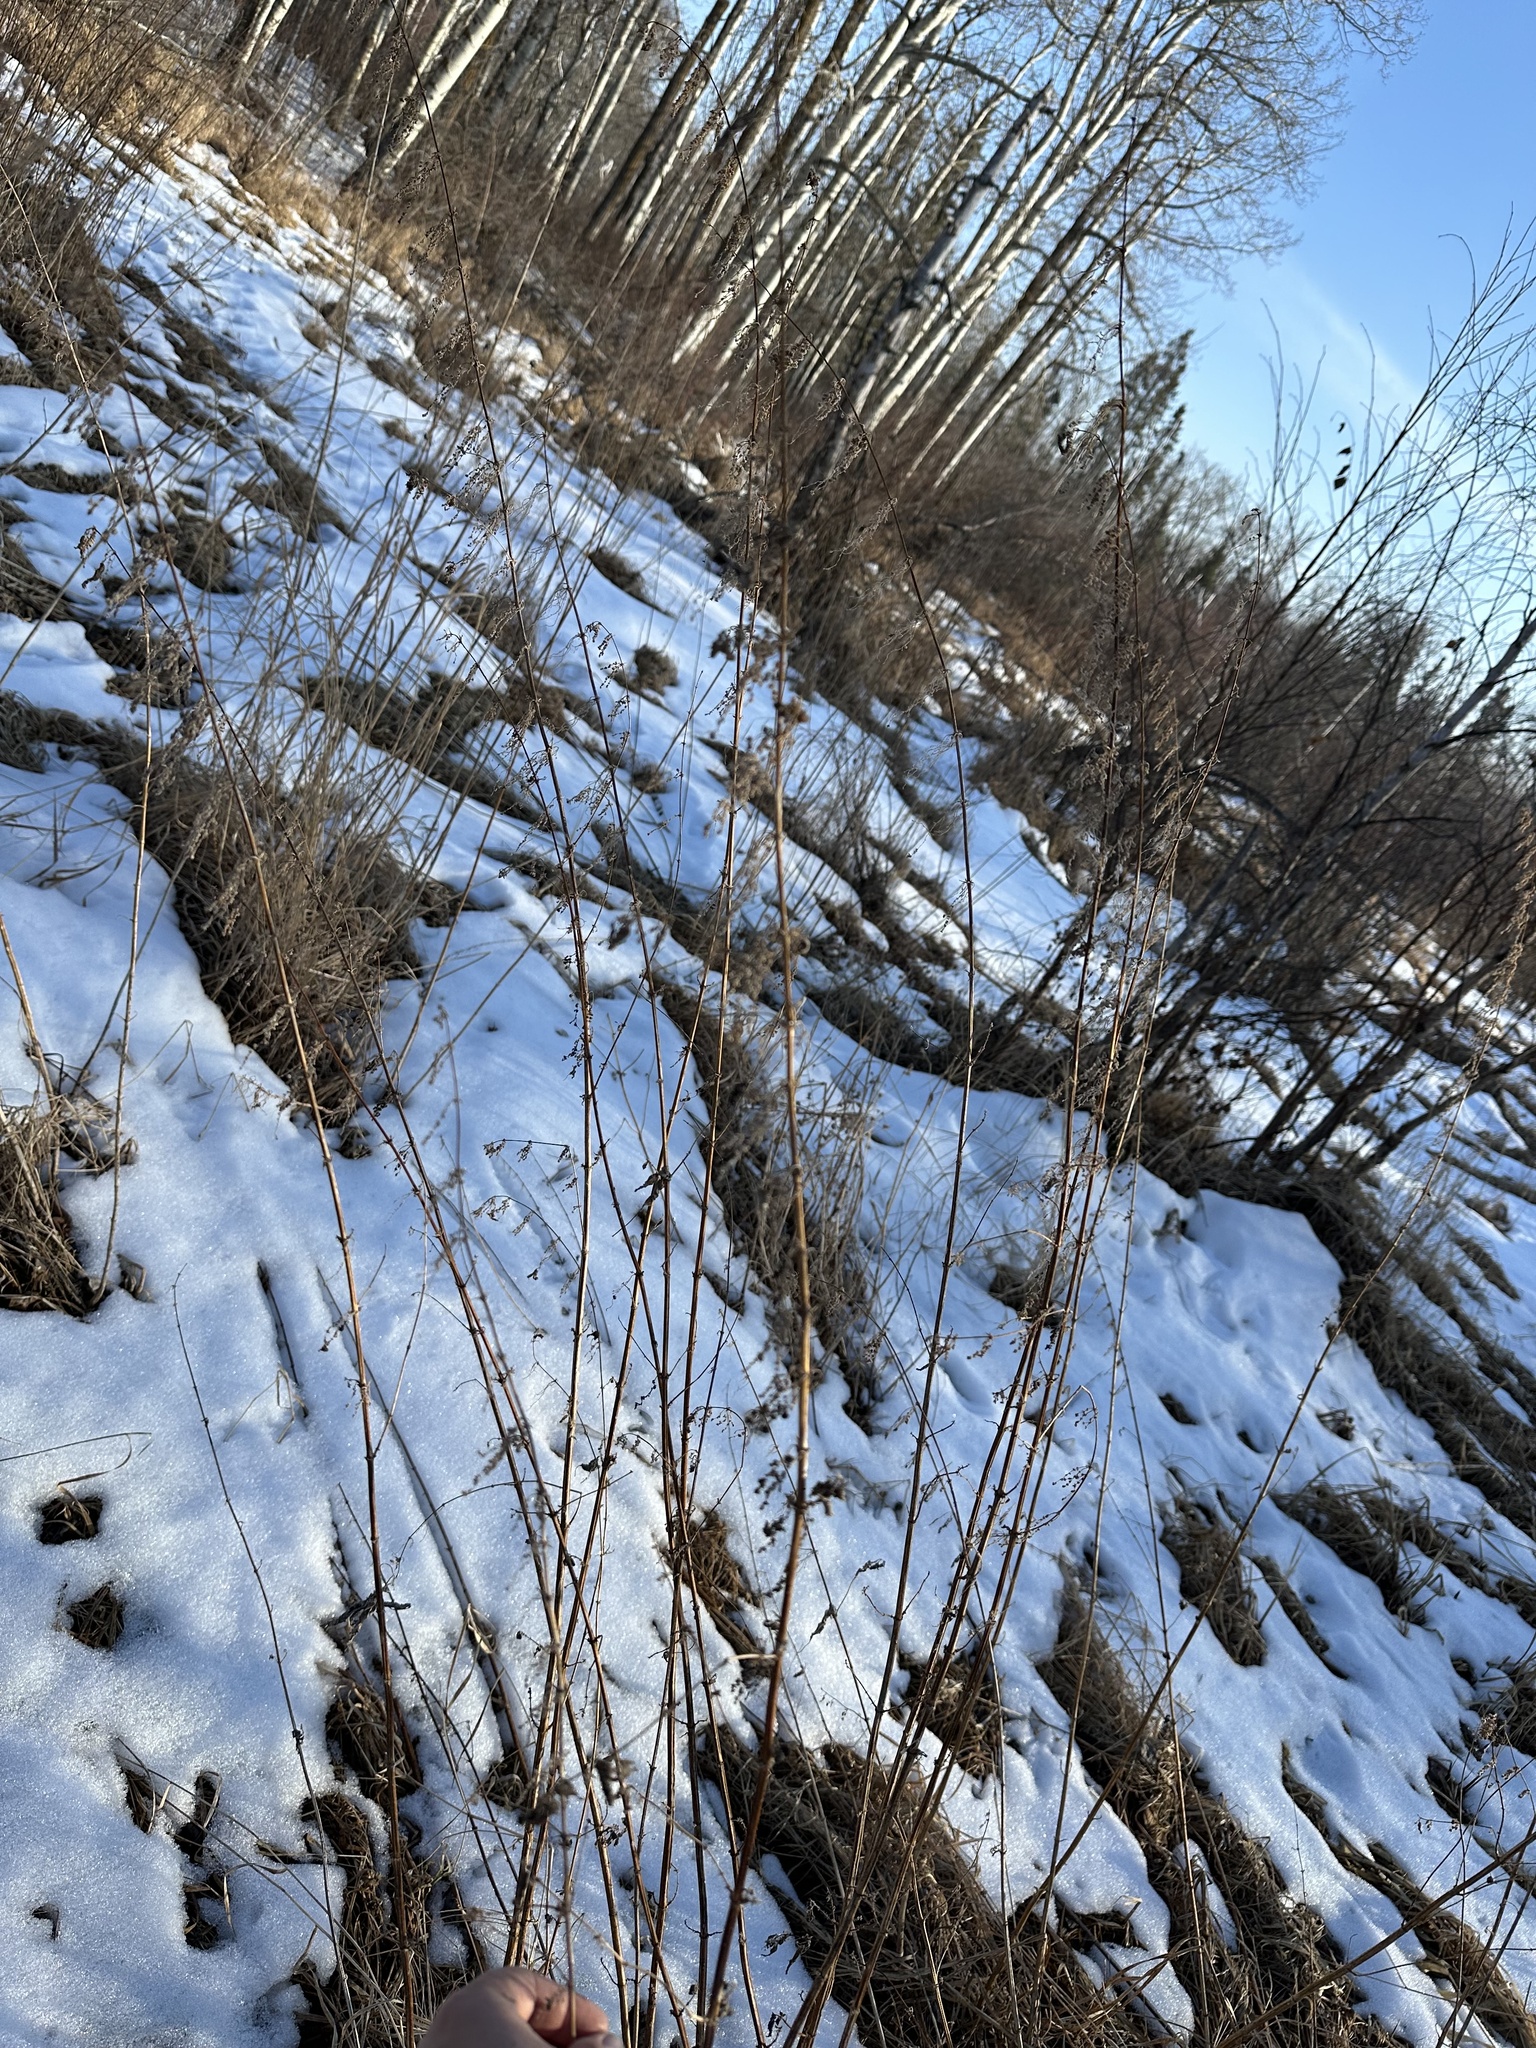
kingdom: Plantae
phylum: Tracheophyta
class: Magnoliopsida
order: Rosales
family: Urticaceae
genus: Urtica
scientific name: Urtica gracilis
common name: Slender stinging nettle
